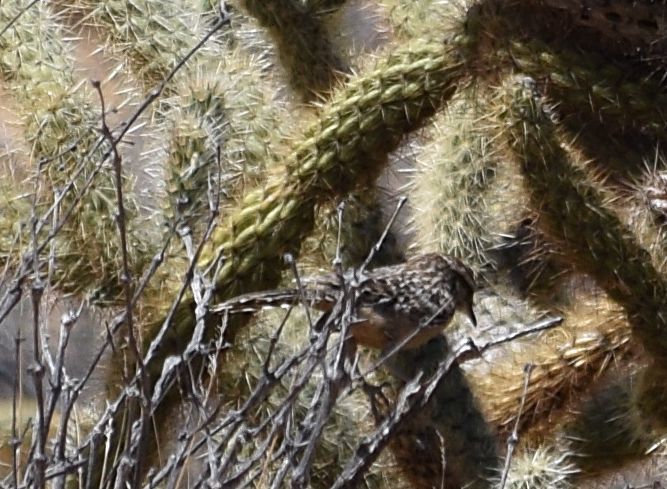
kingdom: Animalia
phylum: Chordata
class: Aves
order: Passeriformes
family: Troglodytidae
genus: Campylorhynchus
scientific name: Campylorhynchus brunneicapillus
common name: Cactus wren
